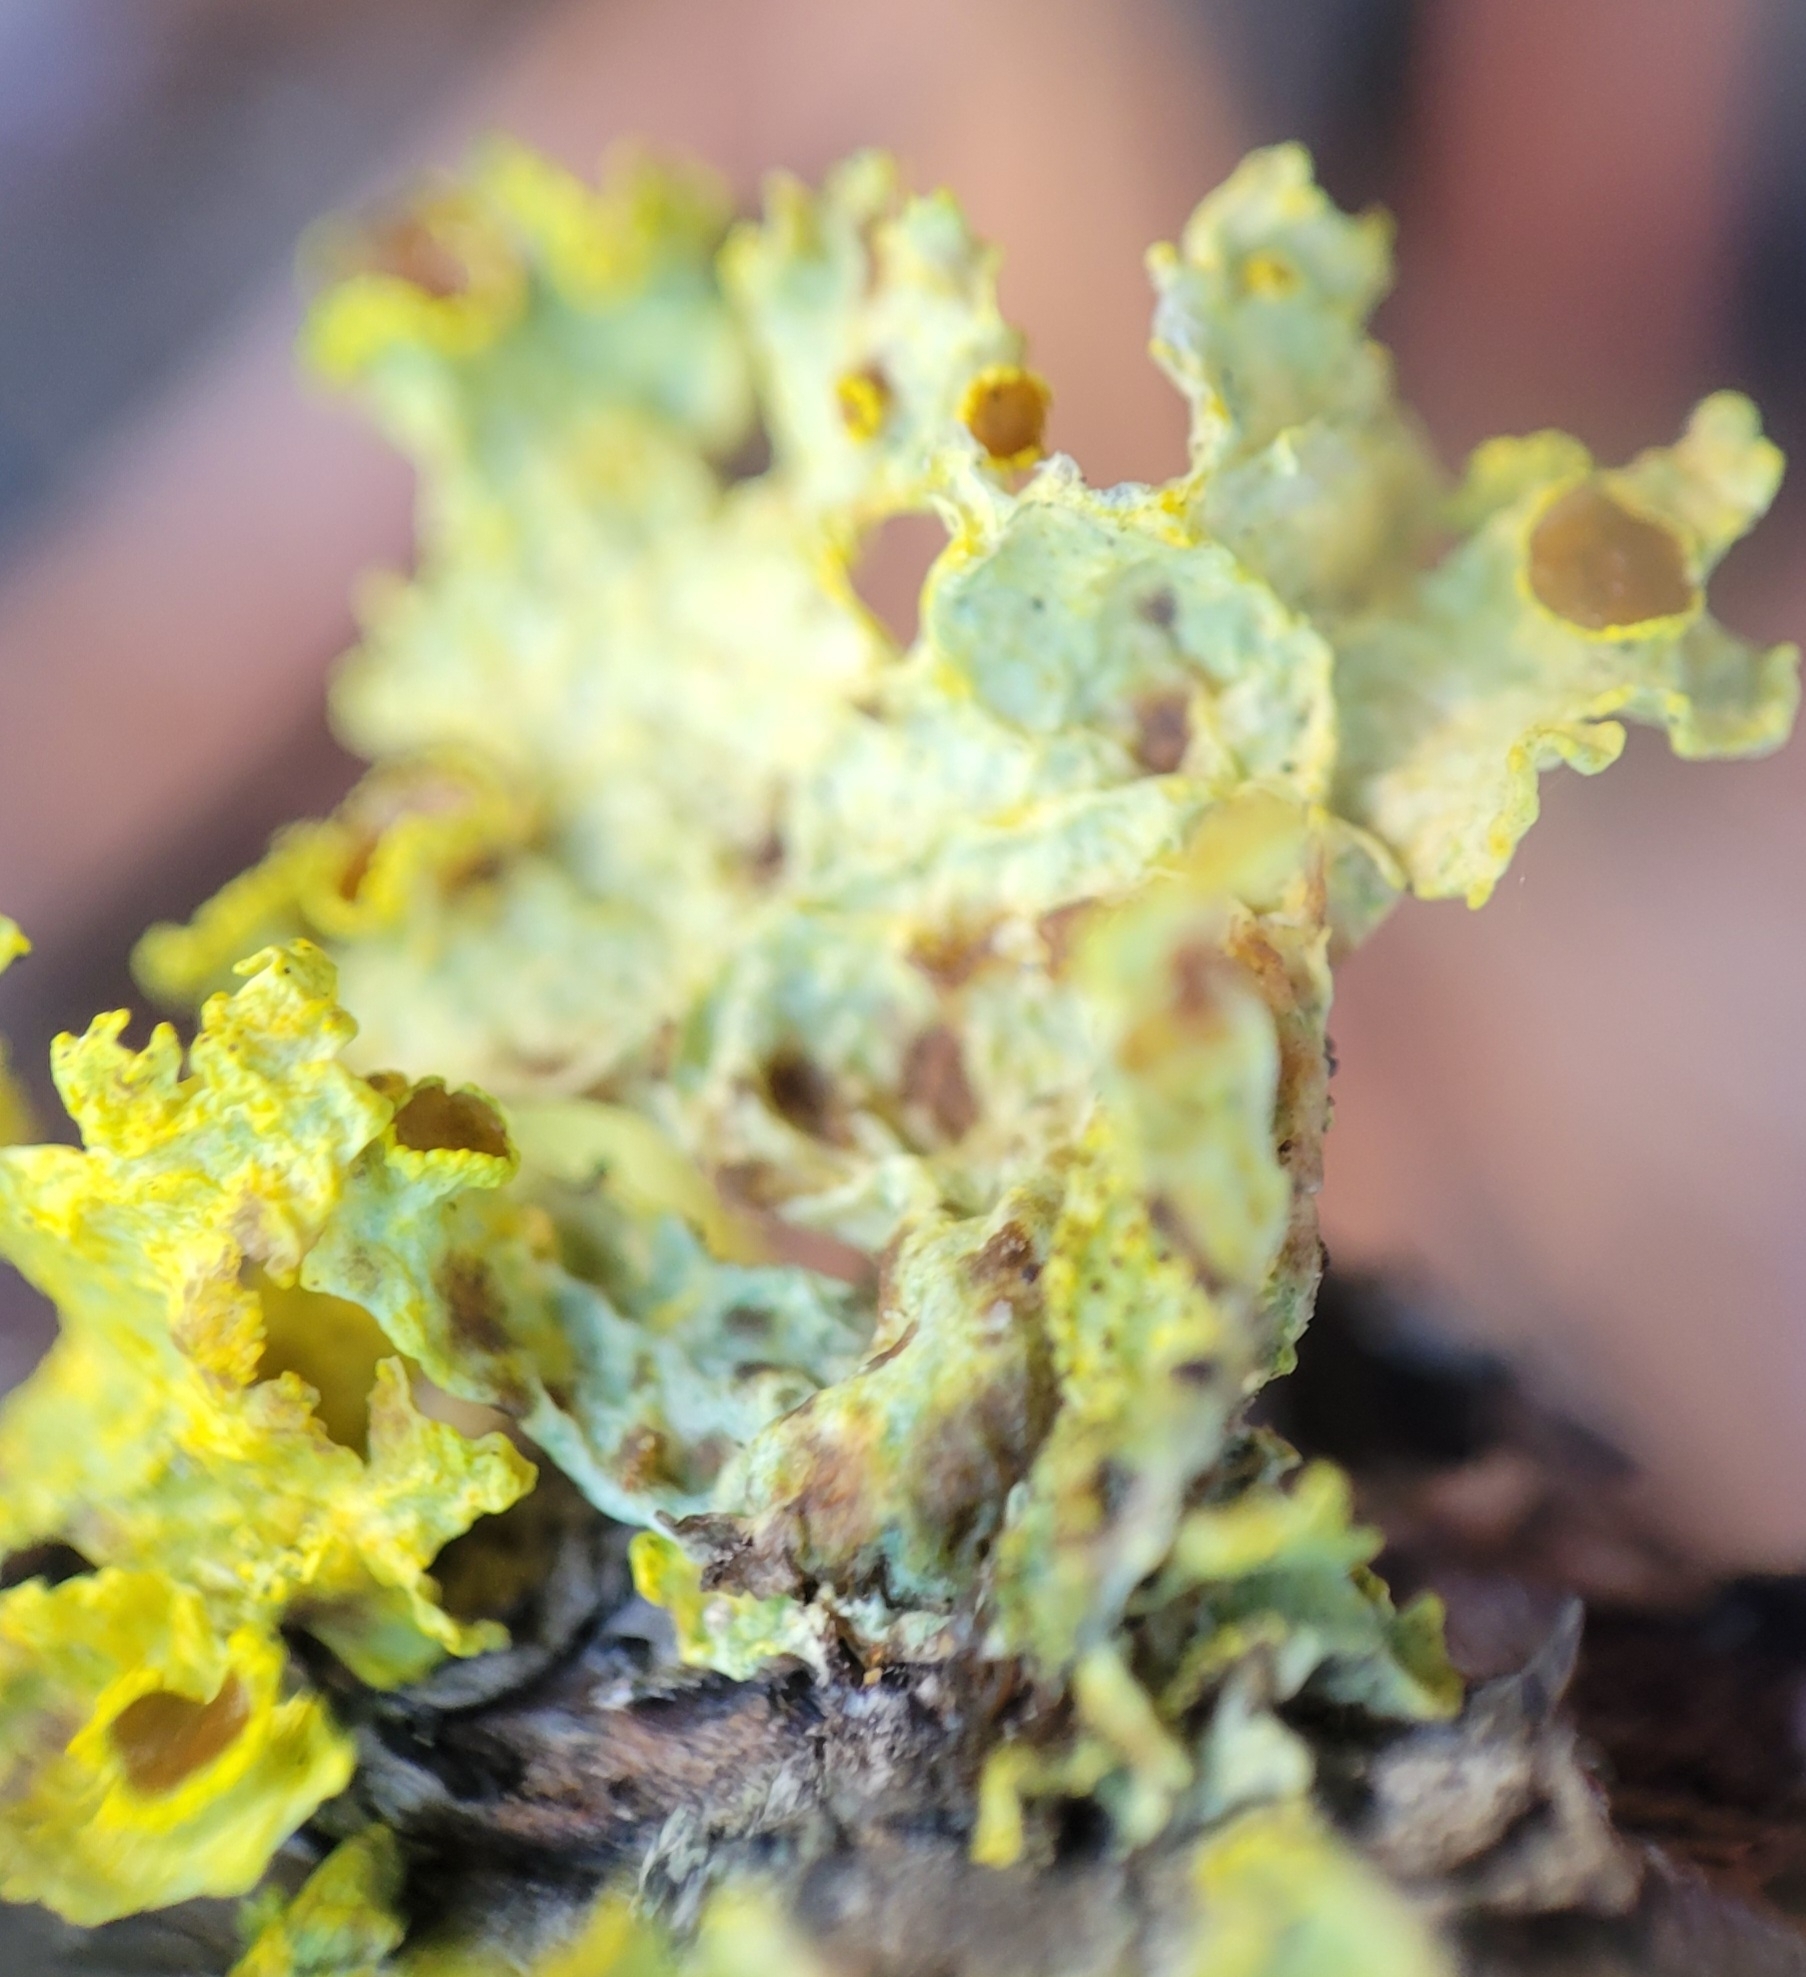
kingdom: Fungi
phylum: Ascomycota
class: Lecanoromycetes
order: Lecanorales
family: Parmeliaceae
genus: Vulpicida
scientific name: Vulpicida canadensis
